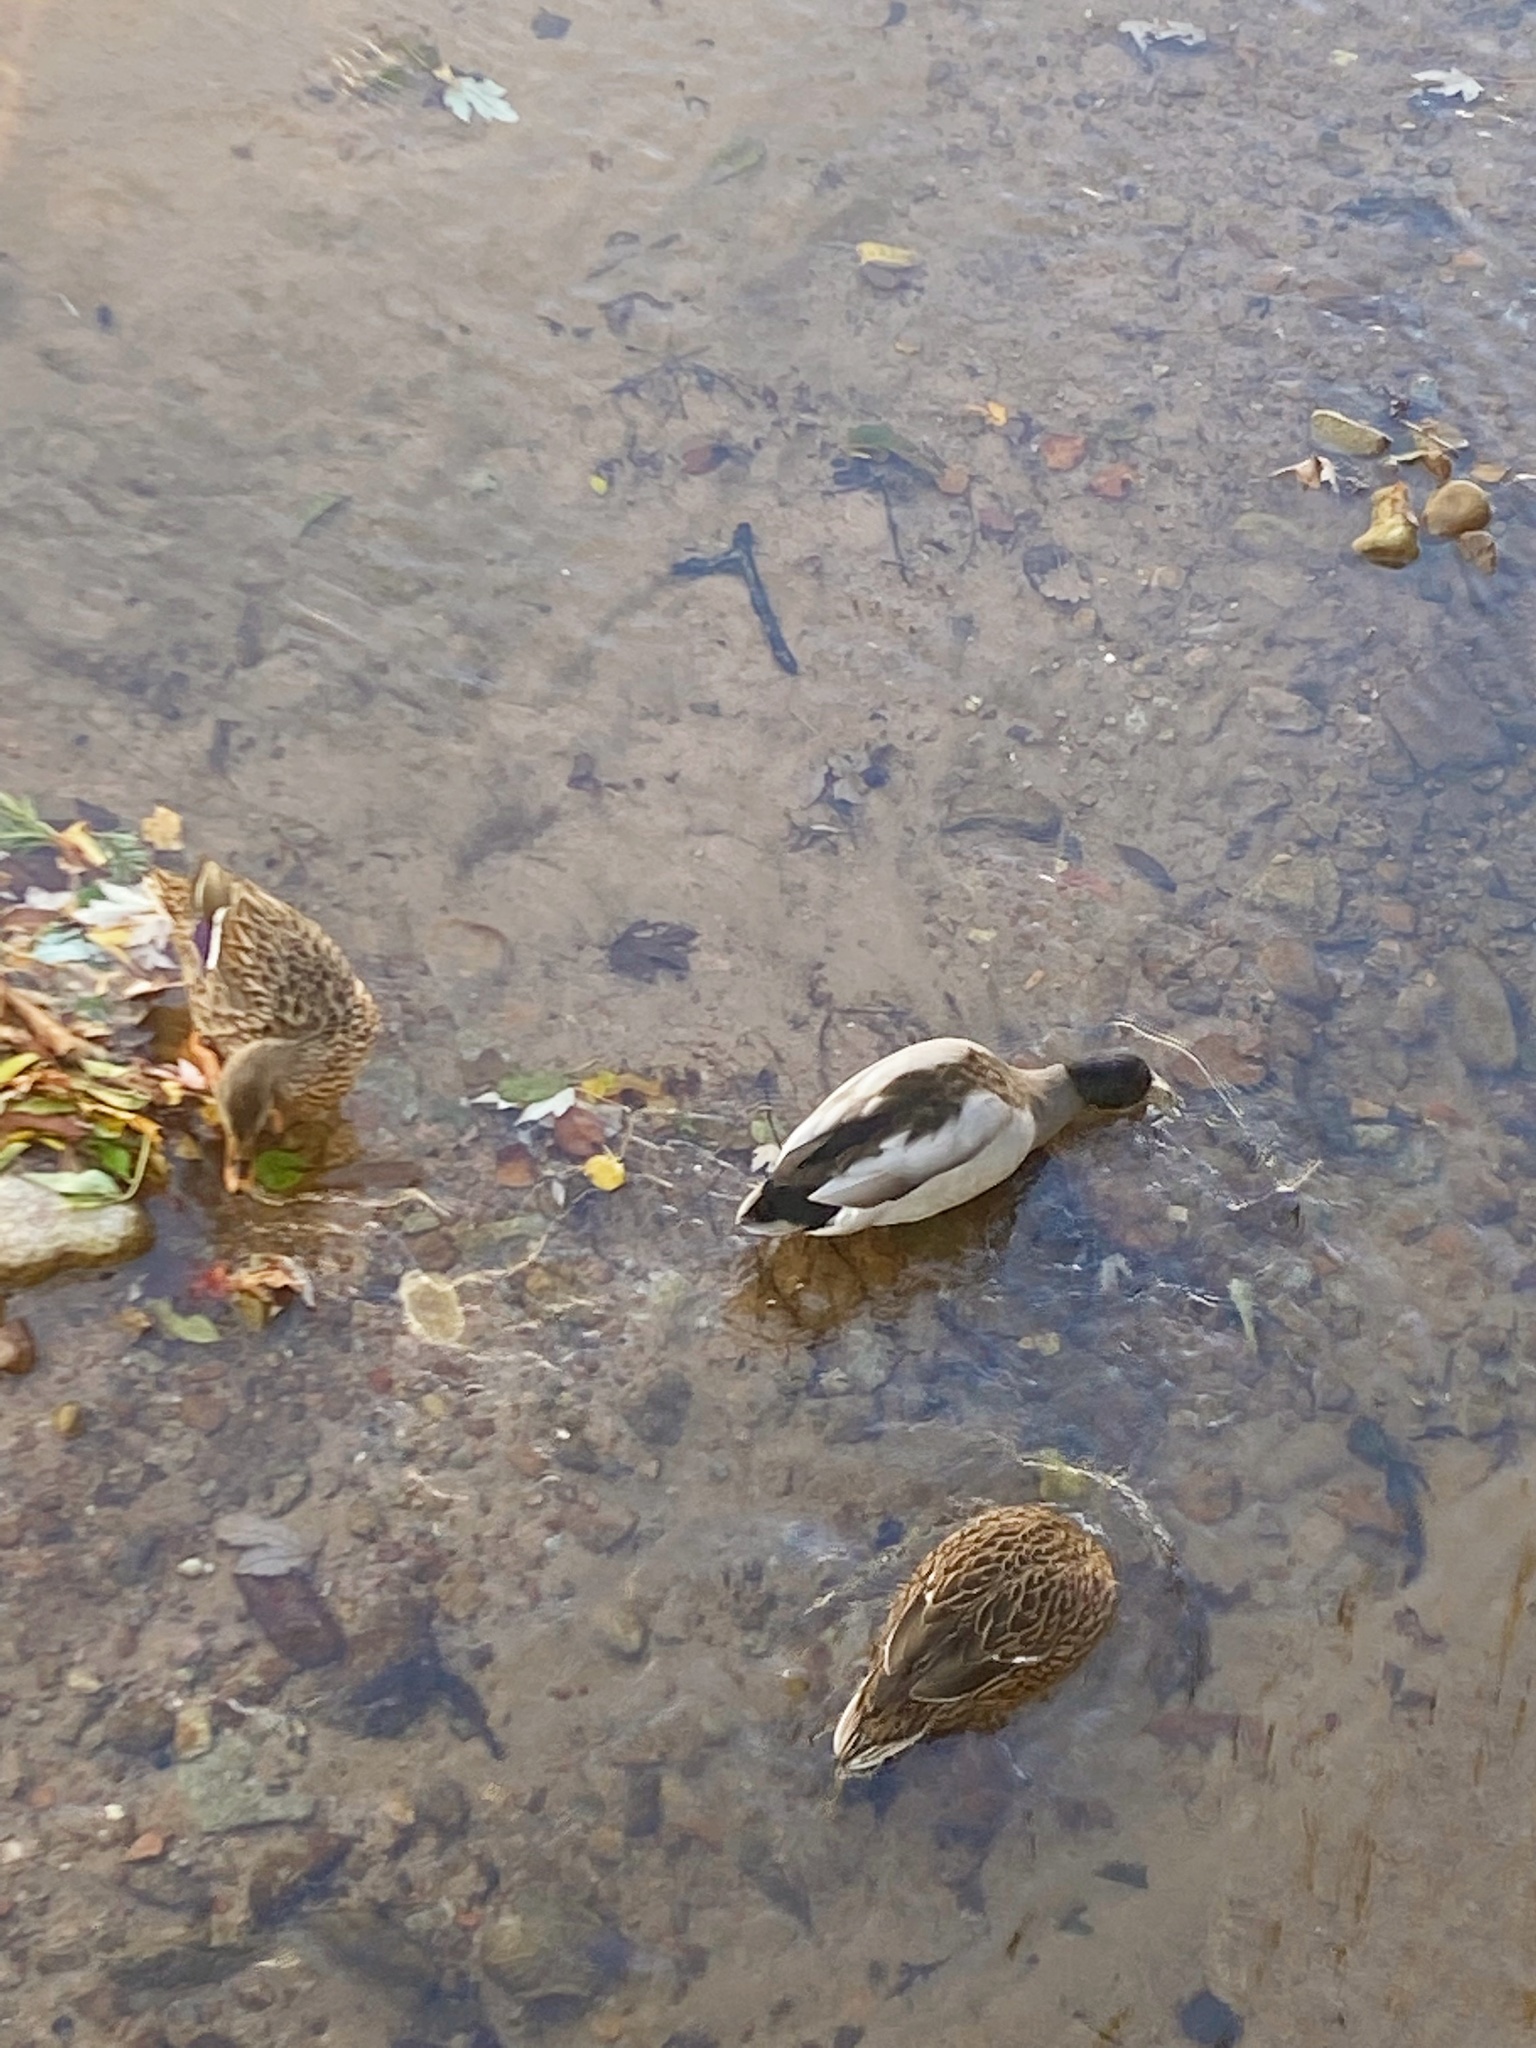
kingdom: Animalia
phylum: Chordata
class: Aves
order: Anseriformes
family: Anatidae
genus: Anas
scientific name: Anas platyrhynchos
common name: Mallard
